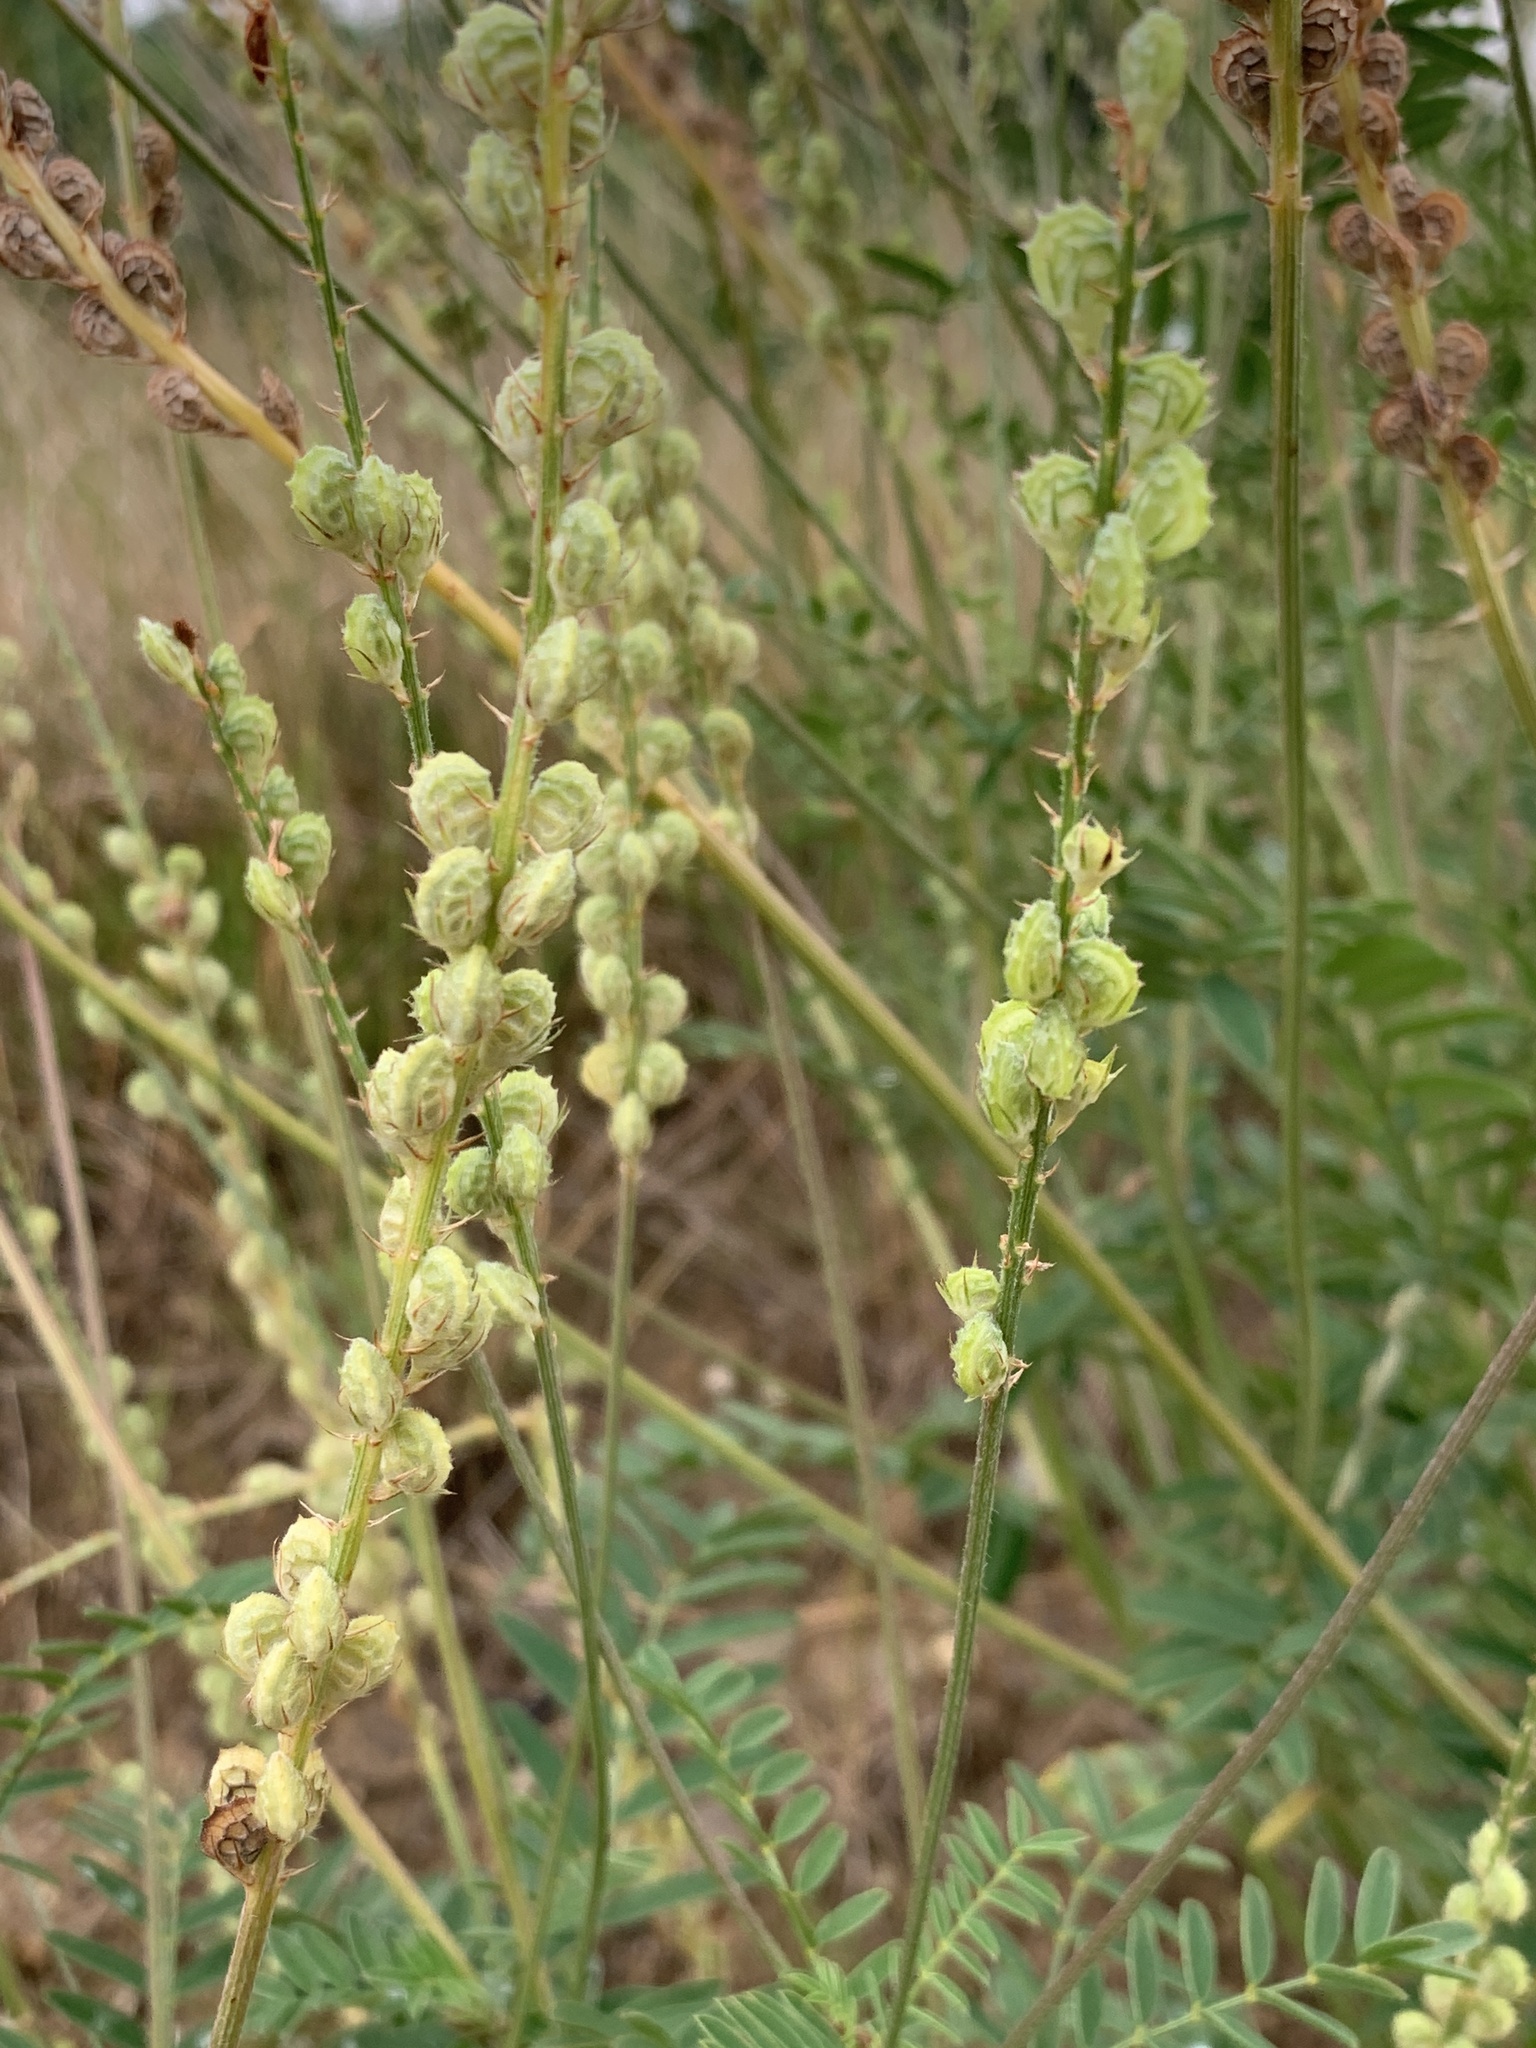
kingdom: Plantae
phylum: Tracheophyta
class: Magnoliopsida
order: Fabales
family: Fabaceae
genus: Onobrychis
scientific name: Onobrychis viciifolia
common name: Sainfoin
